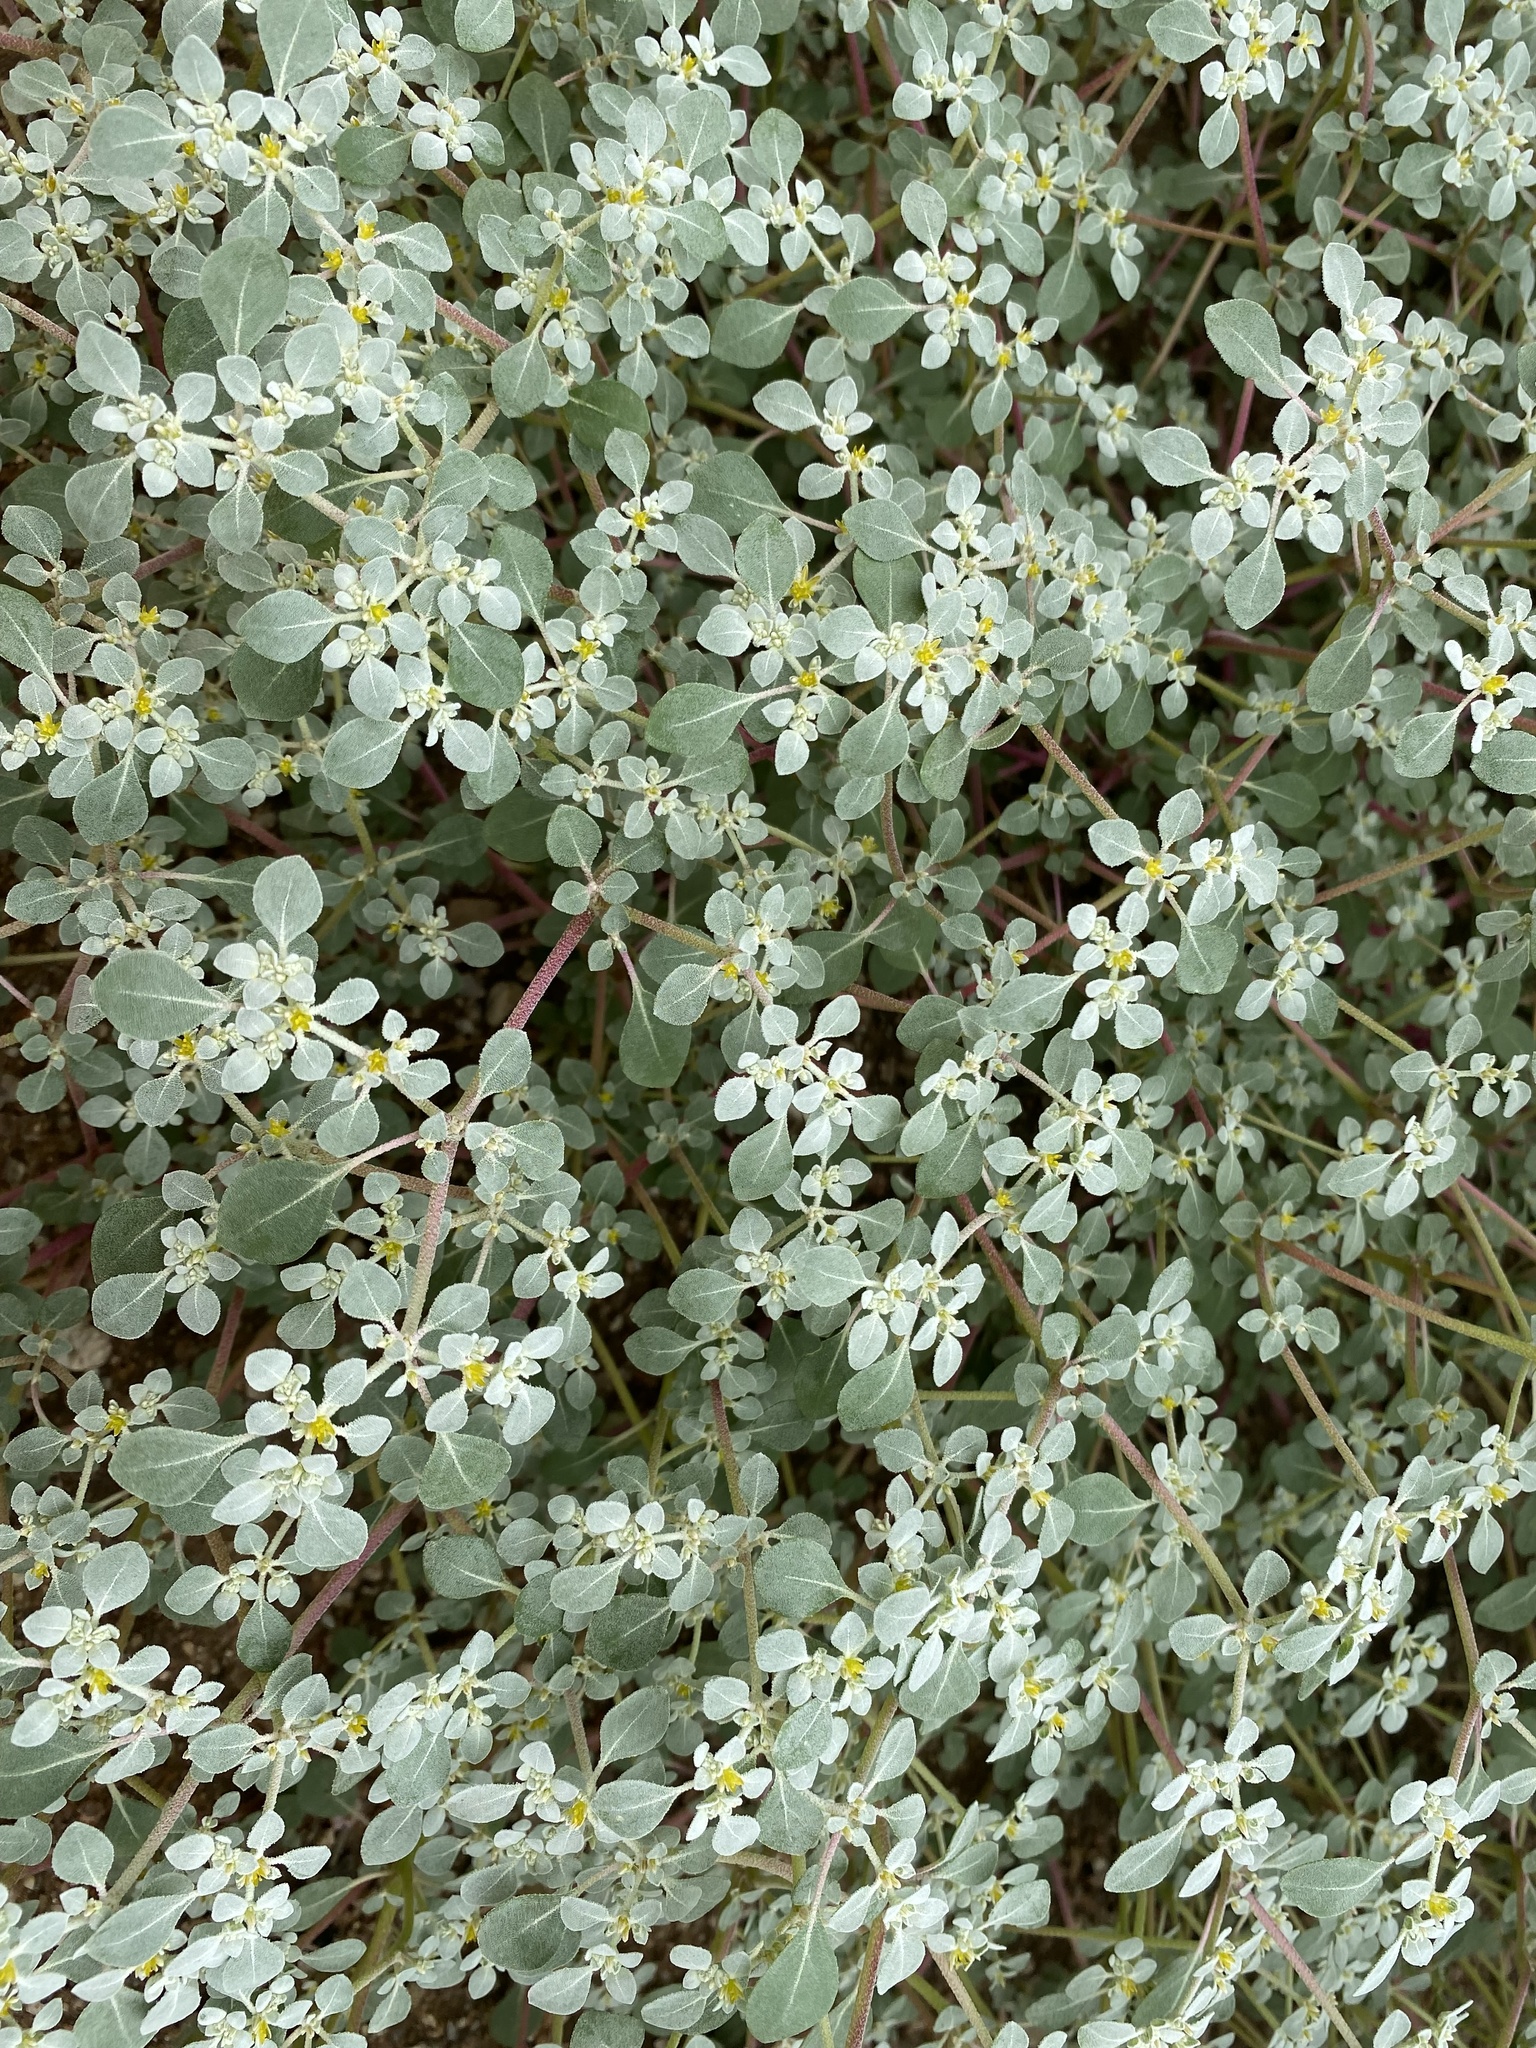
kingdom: Plantae
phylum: Tracheophyta
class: Magnoliopsida
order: Caryophyllales
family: Amaranthaceae
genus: Tidestromia
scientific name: Tidestromia lanuginosa
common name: Woolly tidestromia
